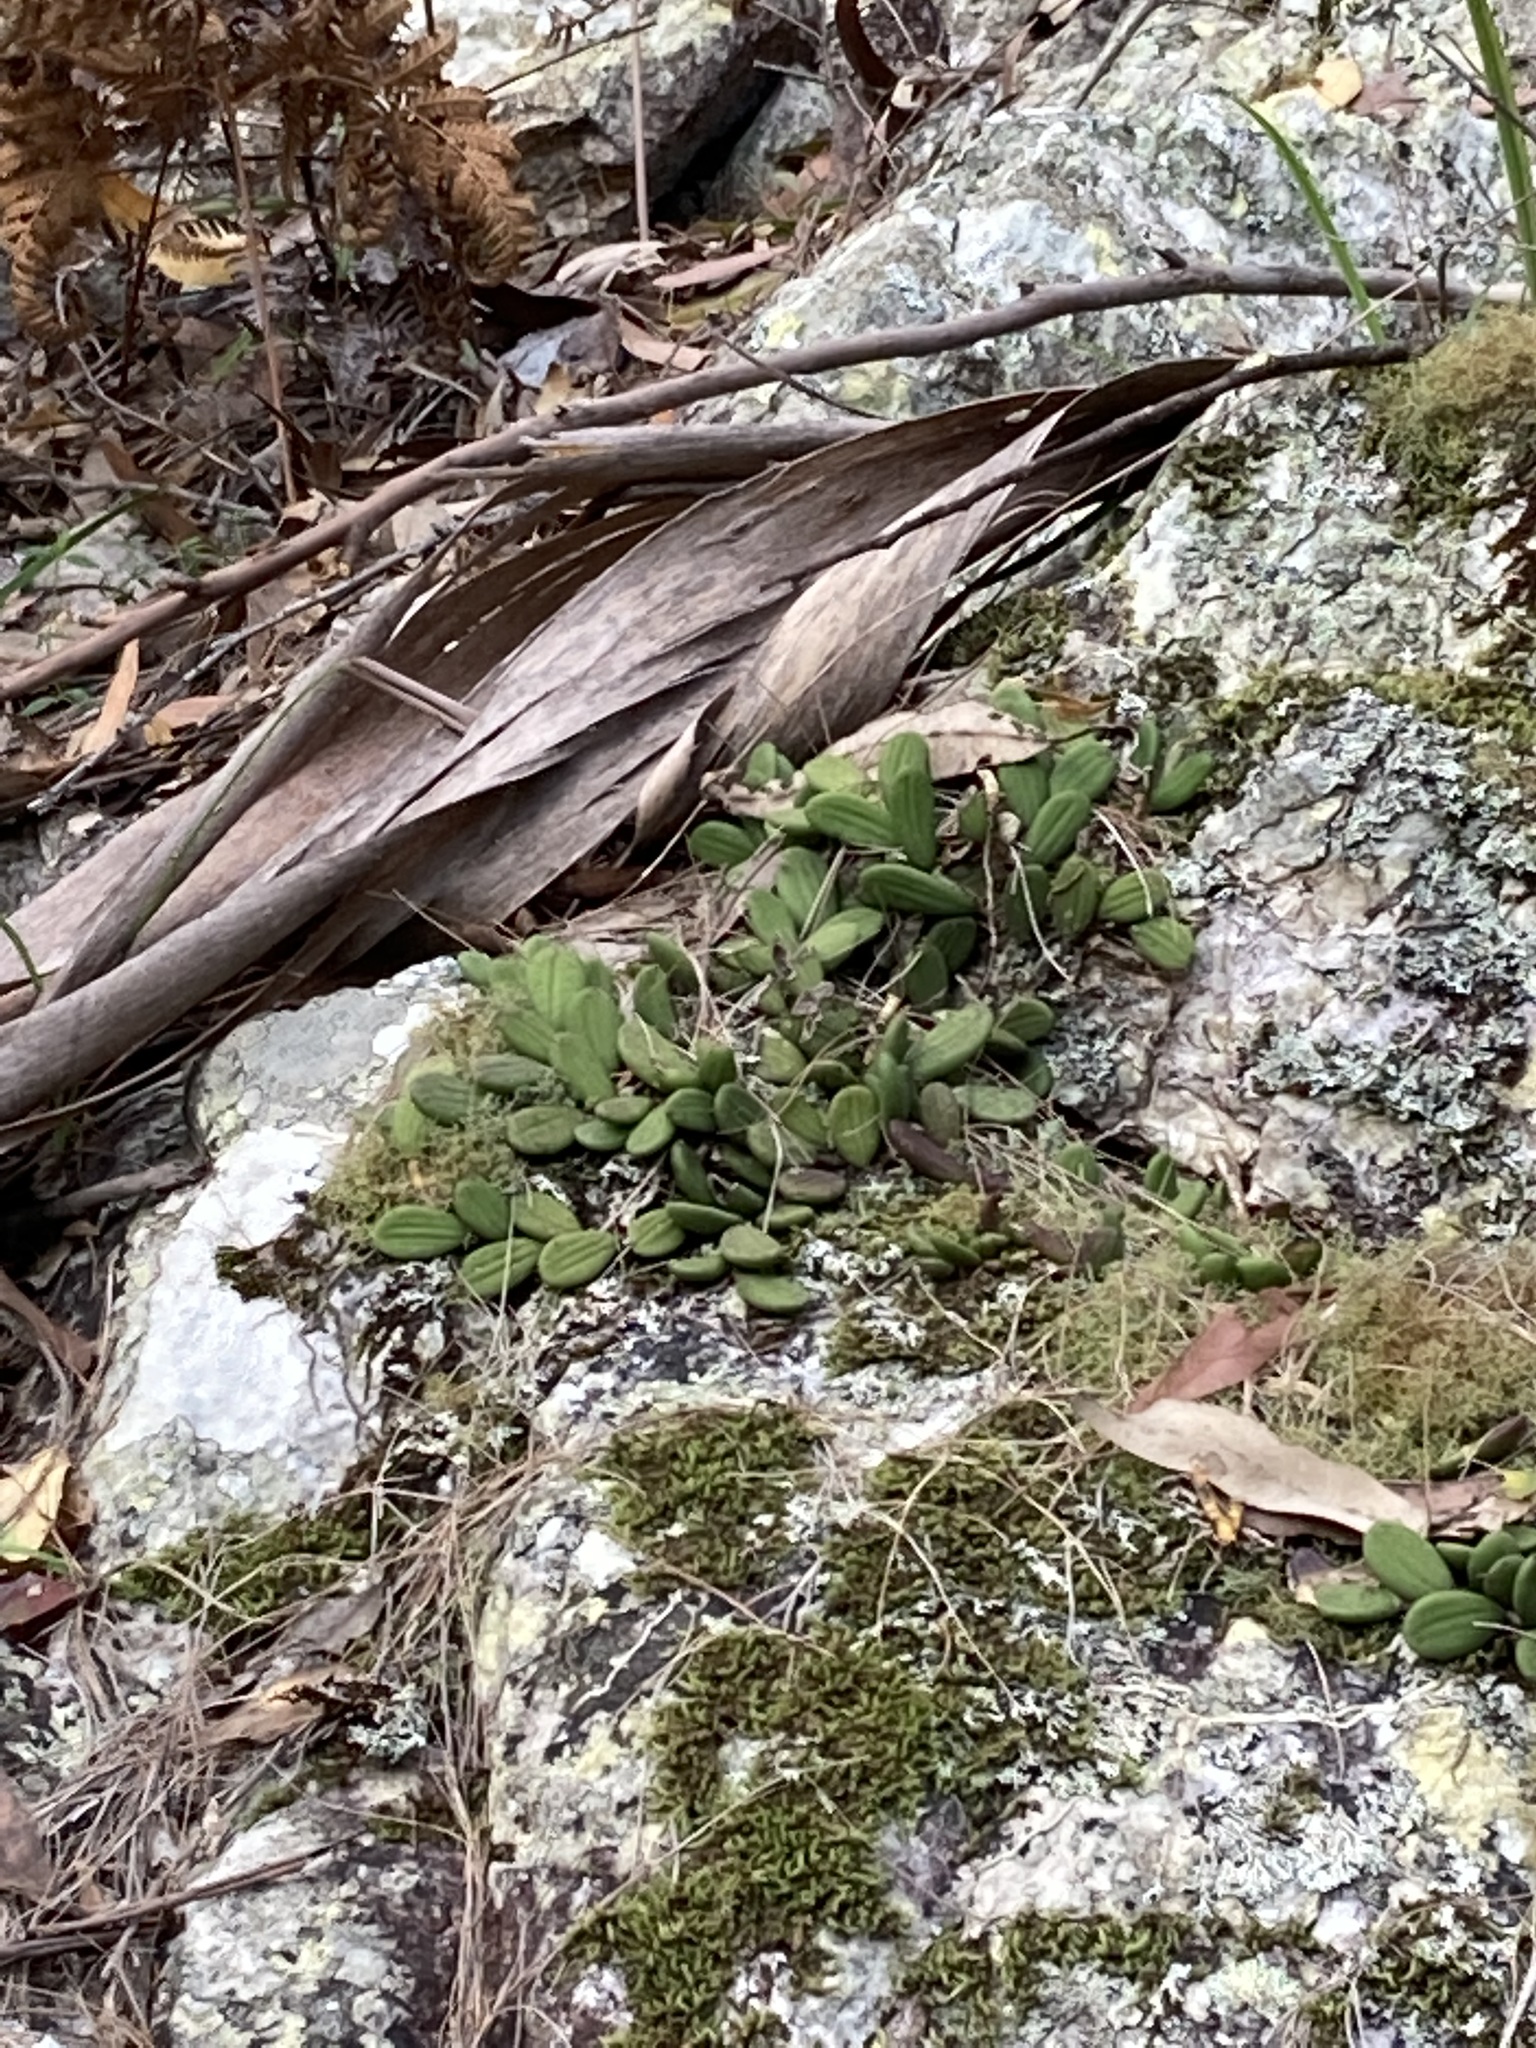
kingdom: Plantae
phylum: Tracheophyta
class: Liliopsida
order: Asparagales
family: Orchidaceae
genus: Dendrobium
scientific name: Dendrobium linguiforme
